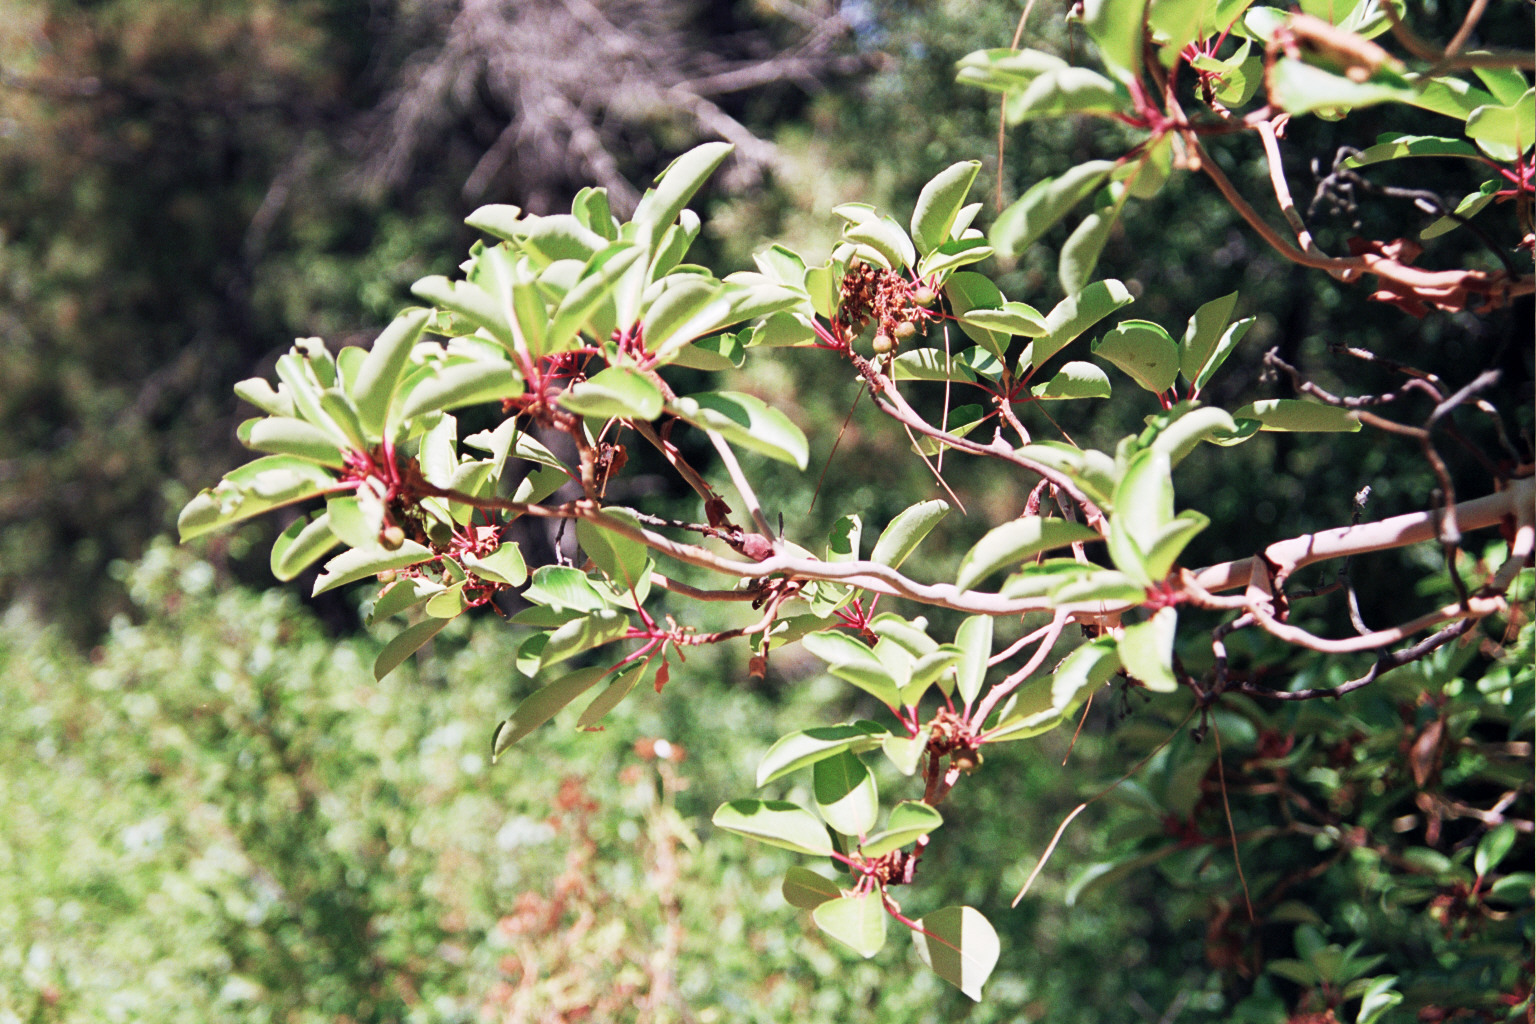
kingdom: Plantae
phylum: Tracheophyta
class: Magnoliopsida
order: Ericales
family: Ericaceae
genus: Arbutus
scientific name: Arbutus andrachne
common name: Greek strawberry tree
